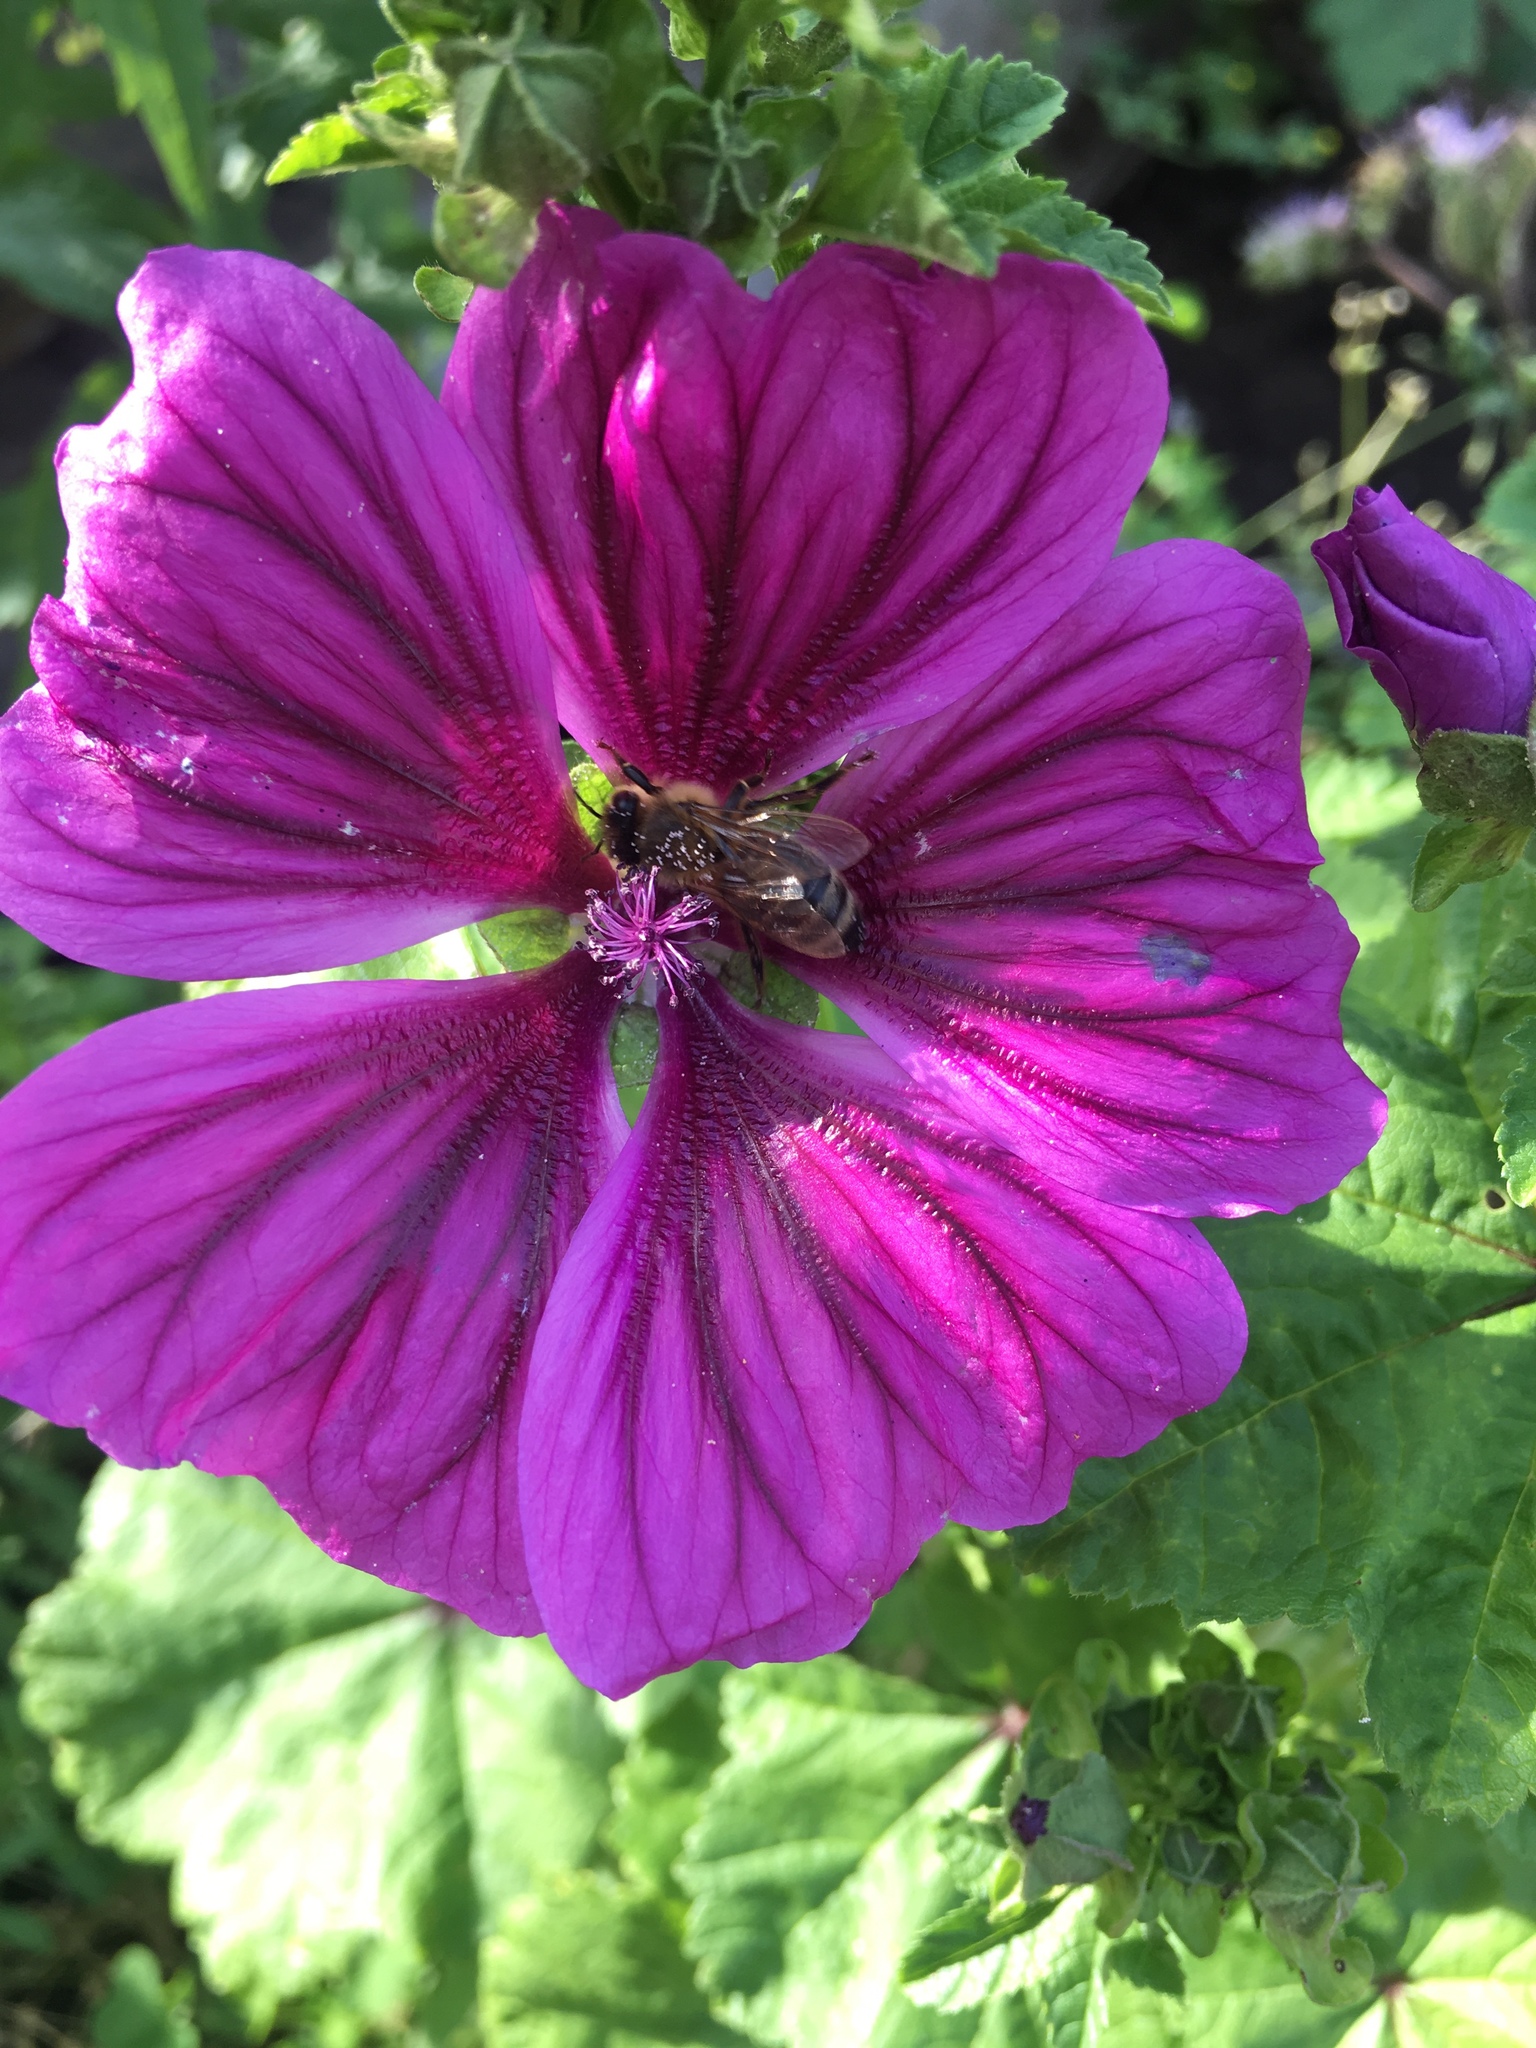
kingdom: Animalia
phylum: Arthropoda
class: Insecta
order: Hymenoptera
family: Apidae
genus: Apis
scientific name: Apis mellifera
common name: Honey bee
